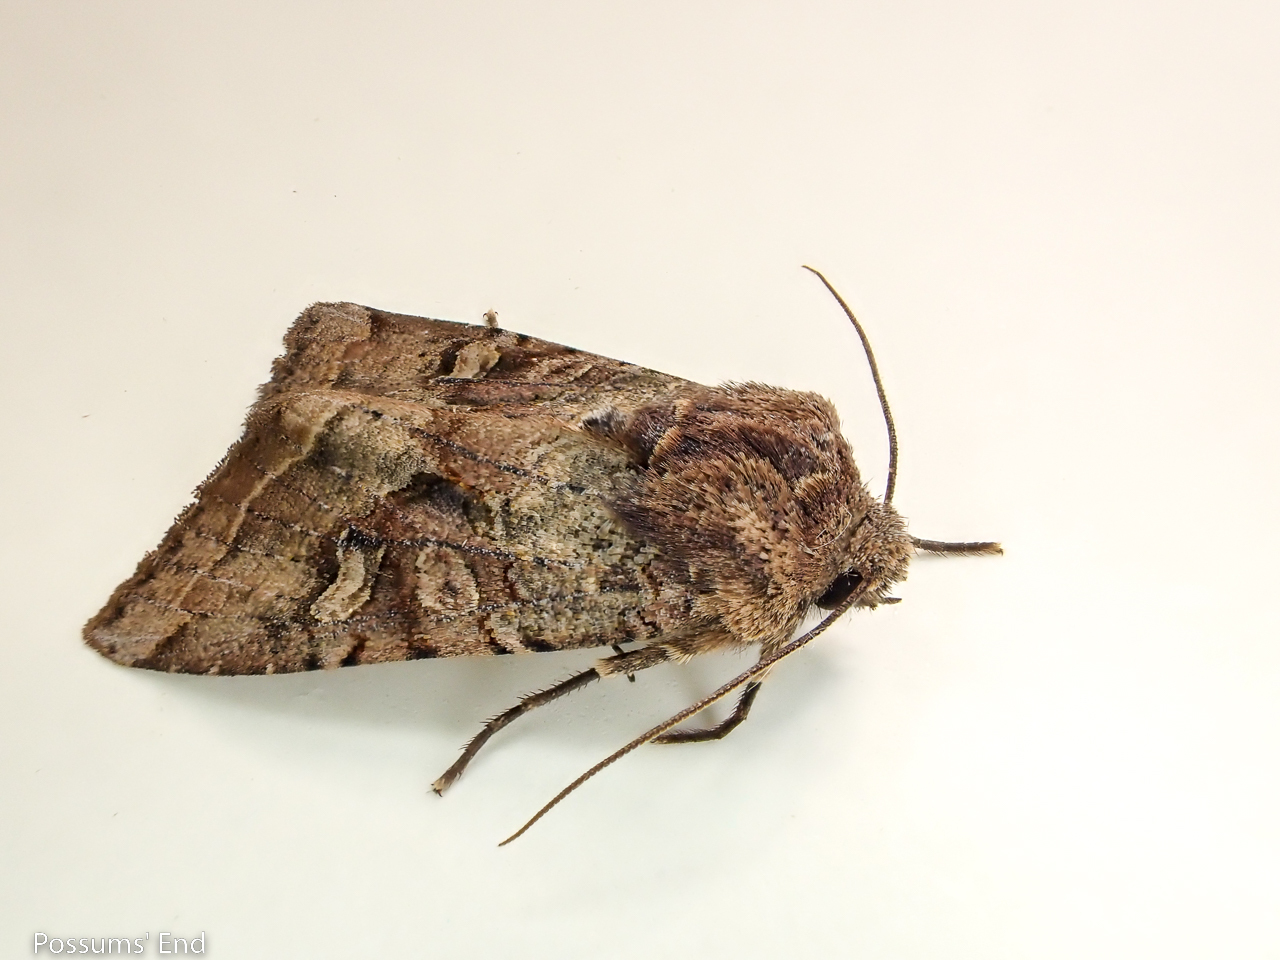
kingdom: Animalia
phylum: Arthropoda
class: Insecta
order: Lepidoptera
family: Noctuidae
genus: Meterana
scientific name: Meterana tartaraea
